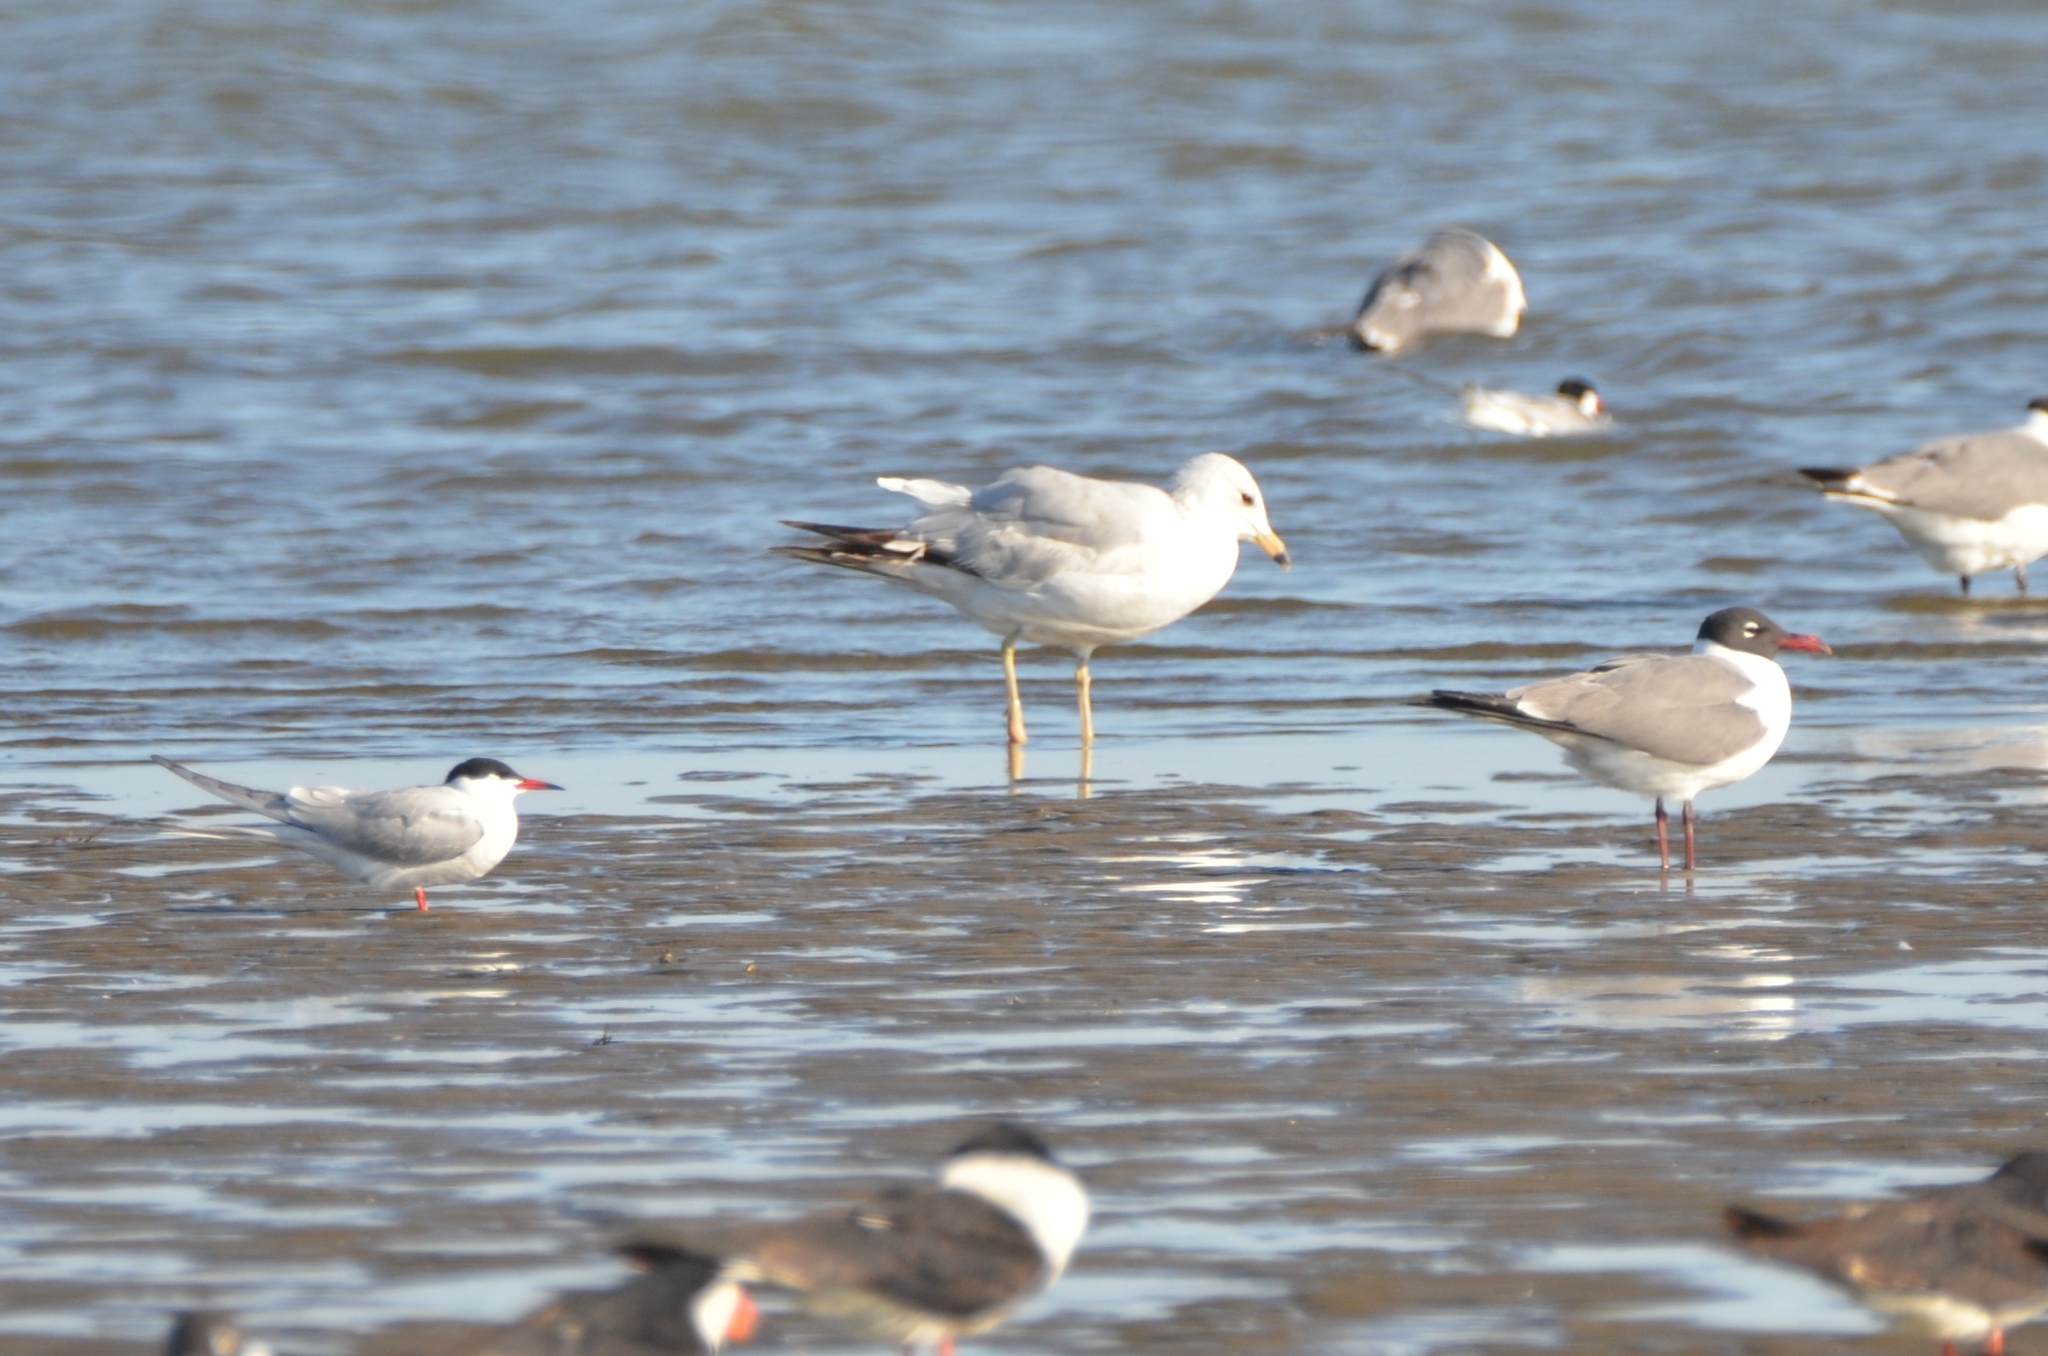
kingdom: Animalia
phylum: Chordata
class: Aves
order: Charadriiformes
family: Laridae
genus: Larus
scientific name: Larus delawarensis
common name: Ring-billed gull
